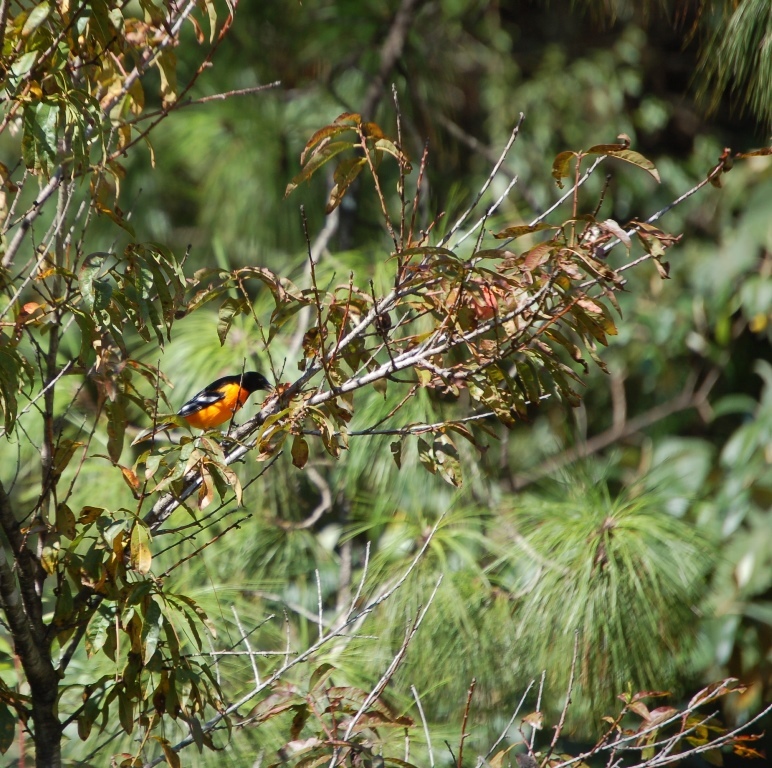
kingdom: Animalia
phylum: Chordata
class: Aves
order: Passeriformes
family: Icteridae
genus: Icterus
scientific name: Icterus galbula
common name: Baltimore oriole
